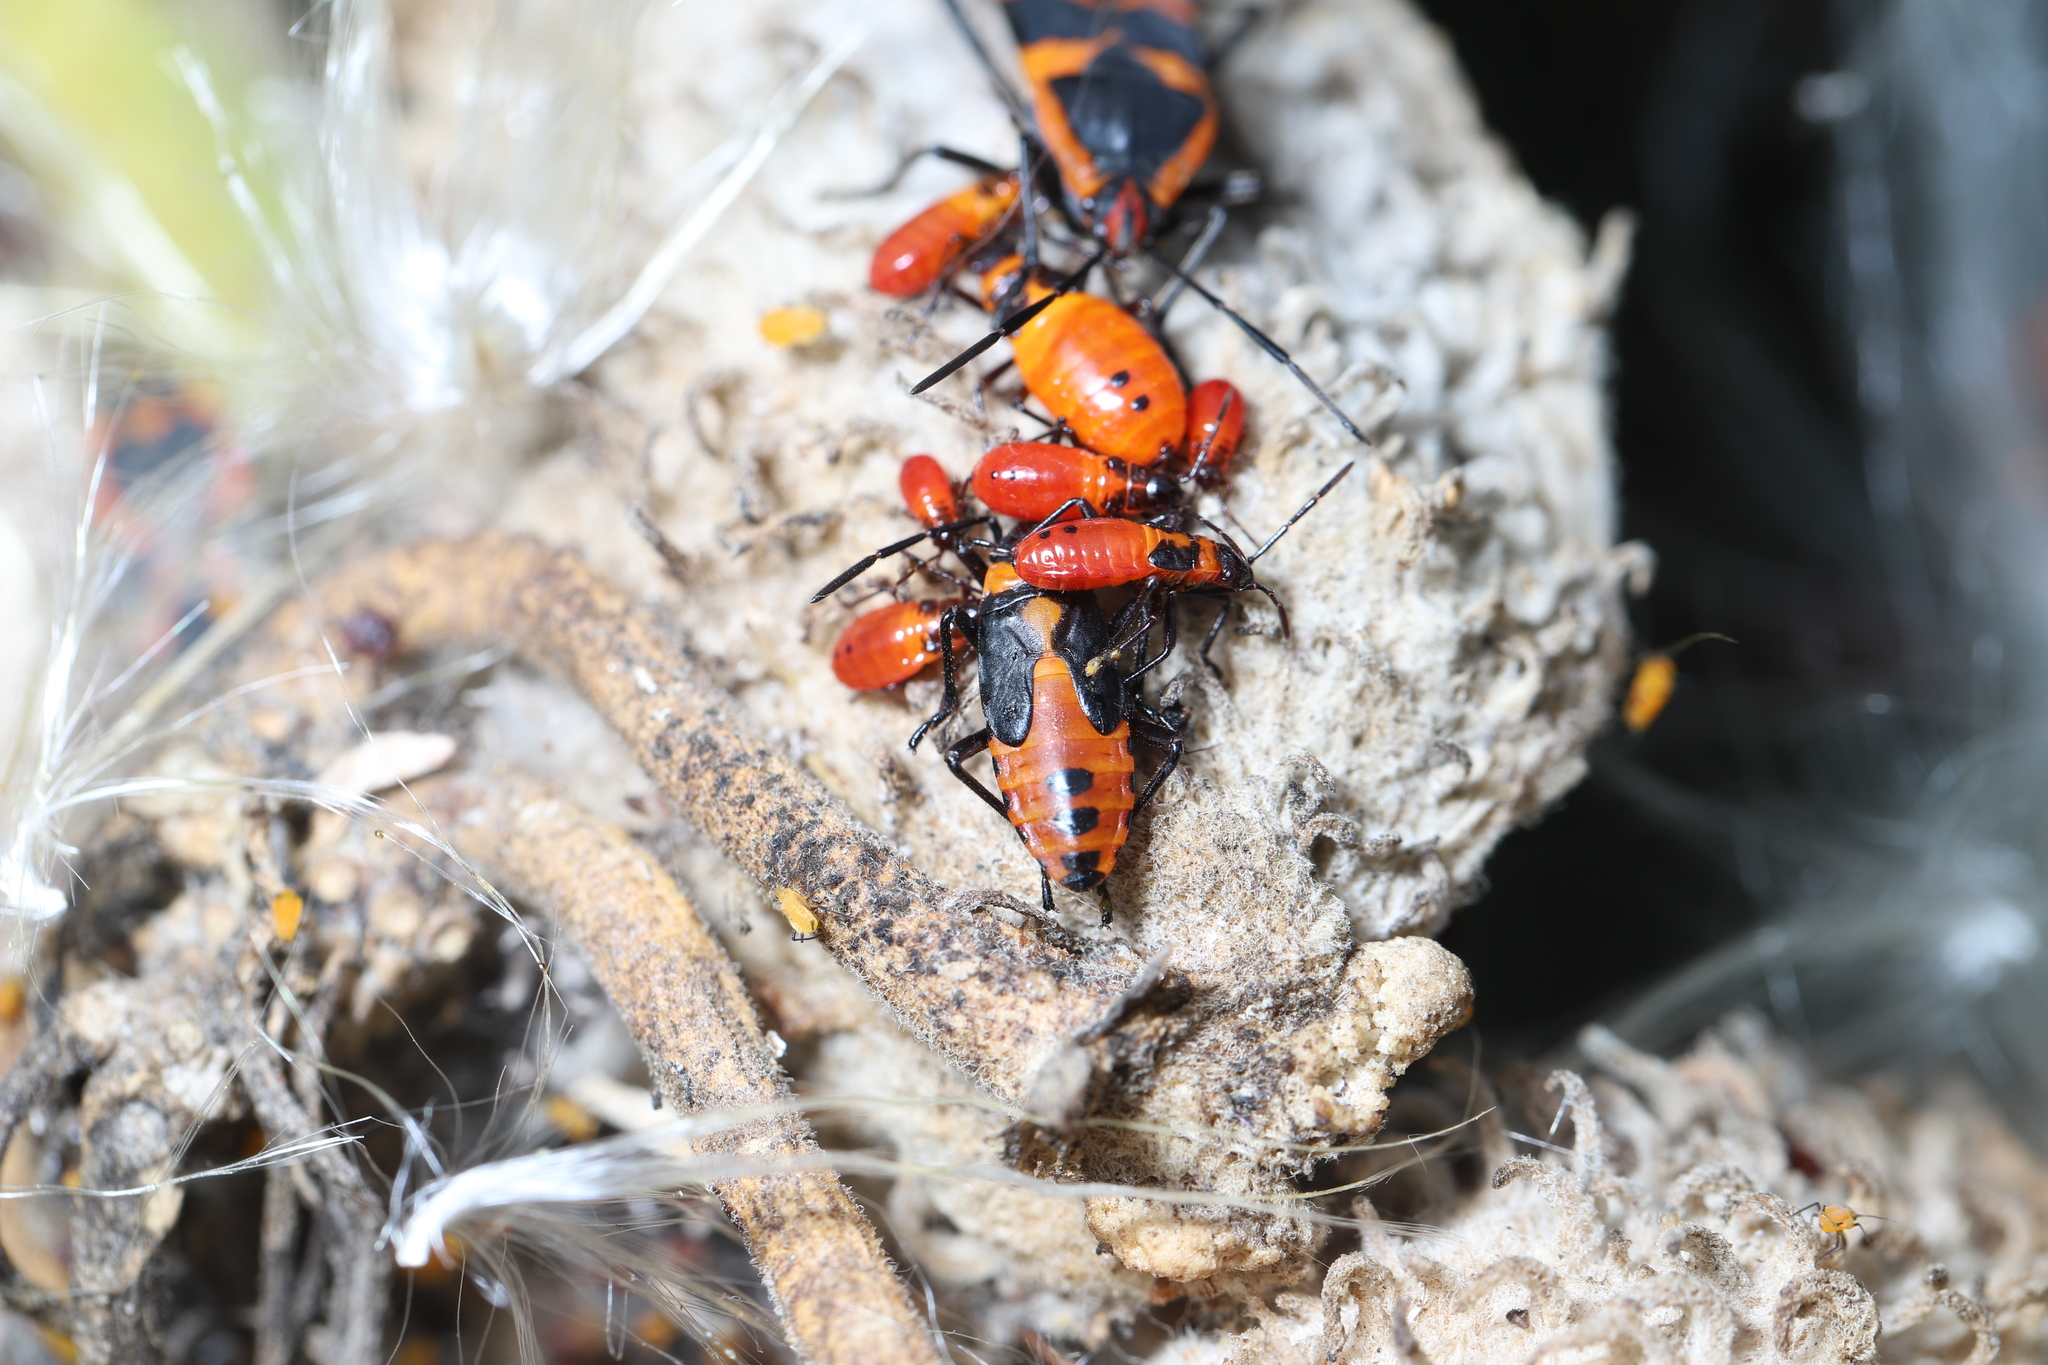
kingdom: Animalia
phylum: Arthropoda
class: Insecta
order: Hemiptera
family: Lygaeidae
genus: Oncopeltus
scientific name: Oncopeltus fasciatus
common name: Large milkweed bug
